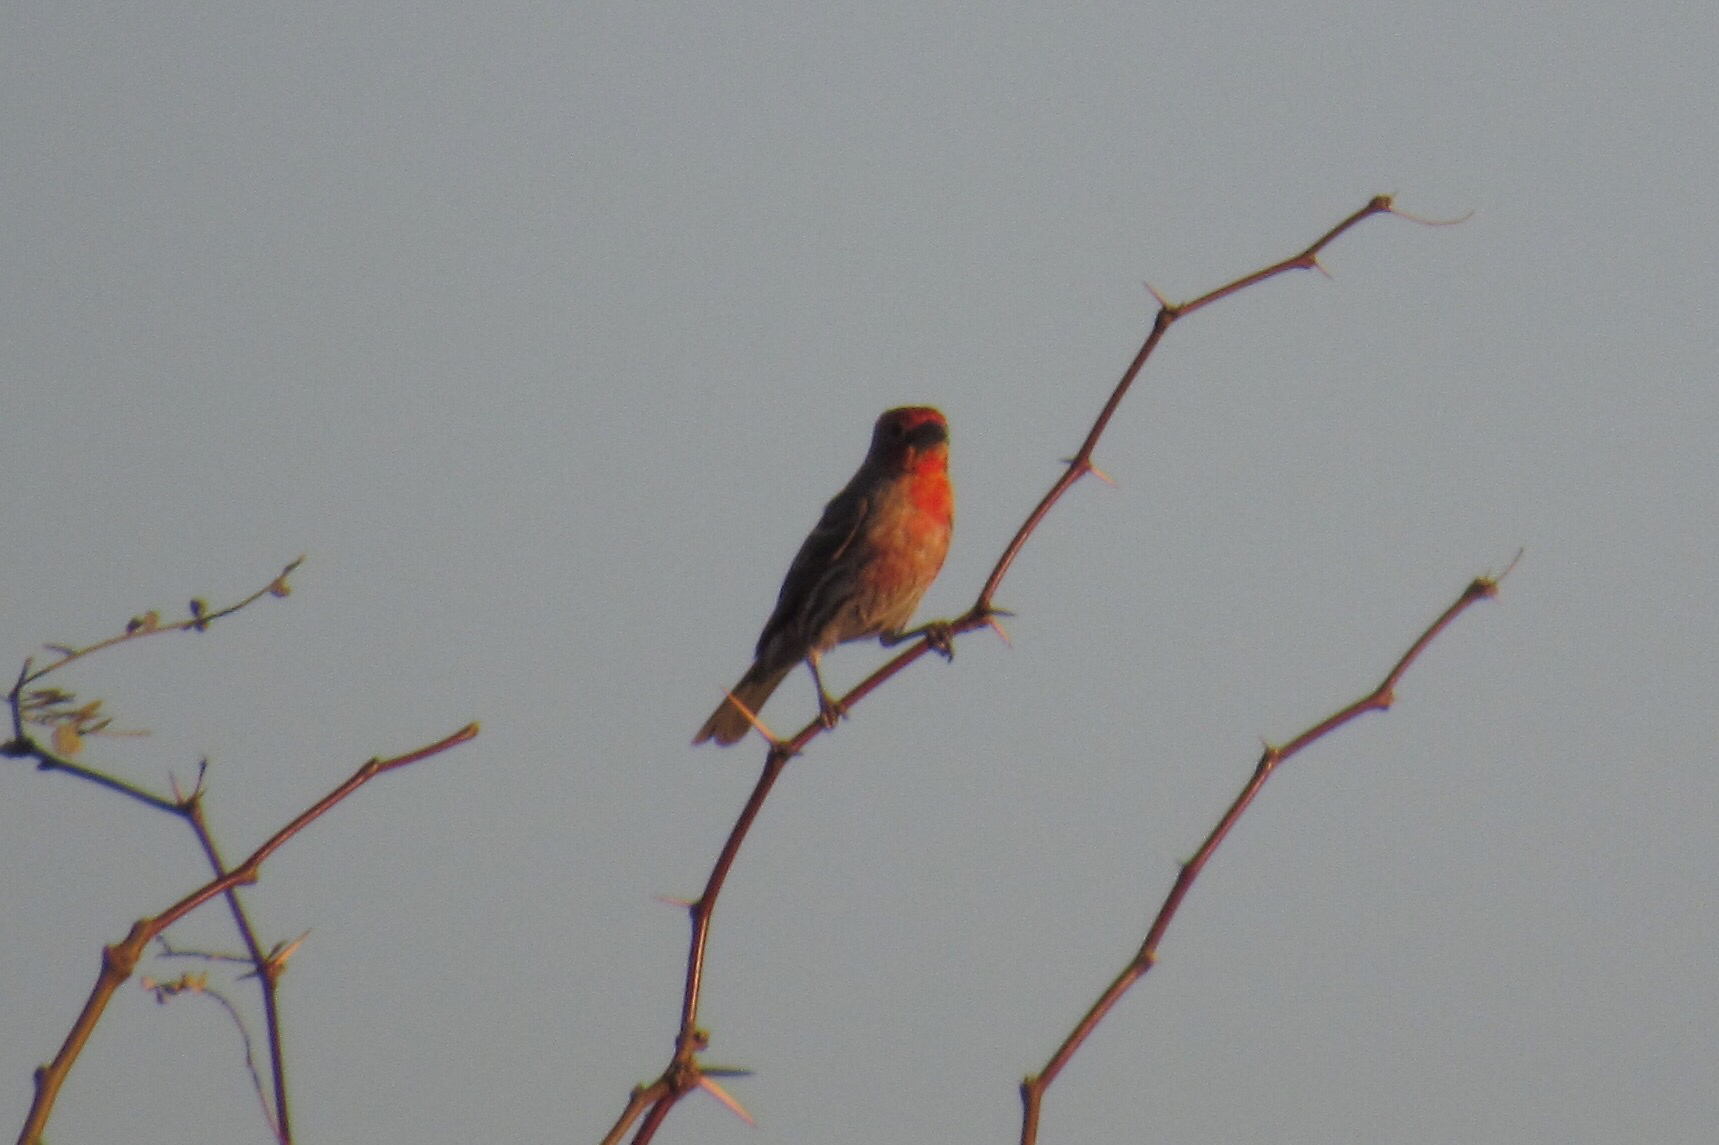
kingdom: Animalia
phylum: Chordata
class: Aves
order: Passeriformes
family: Fringillidae
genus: Haemorhous
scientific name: Haemorhous mexicanus
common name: House finch
